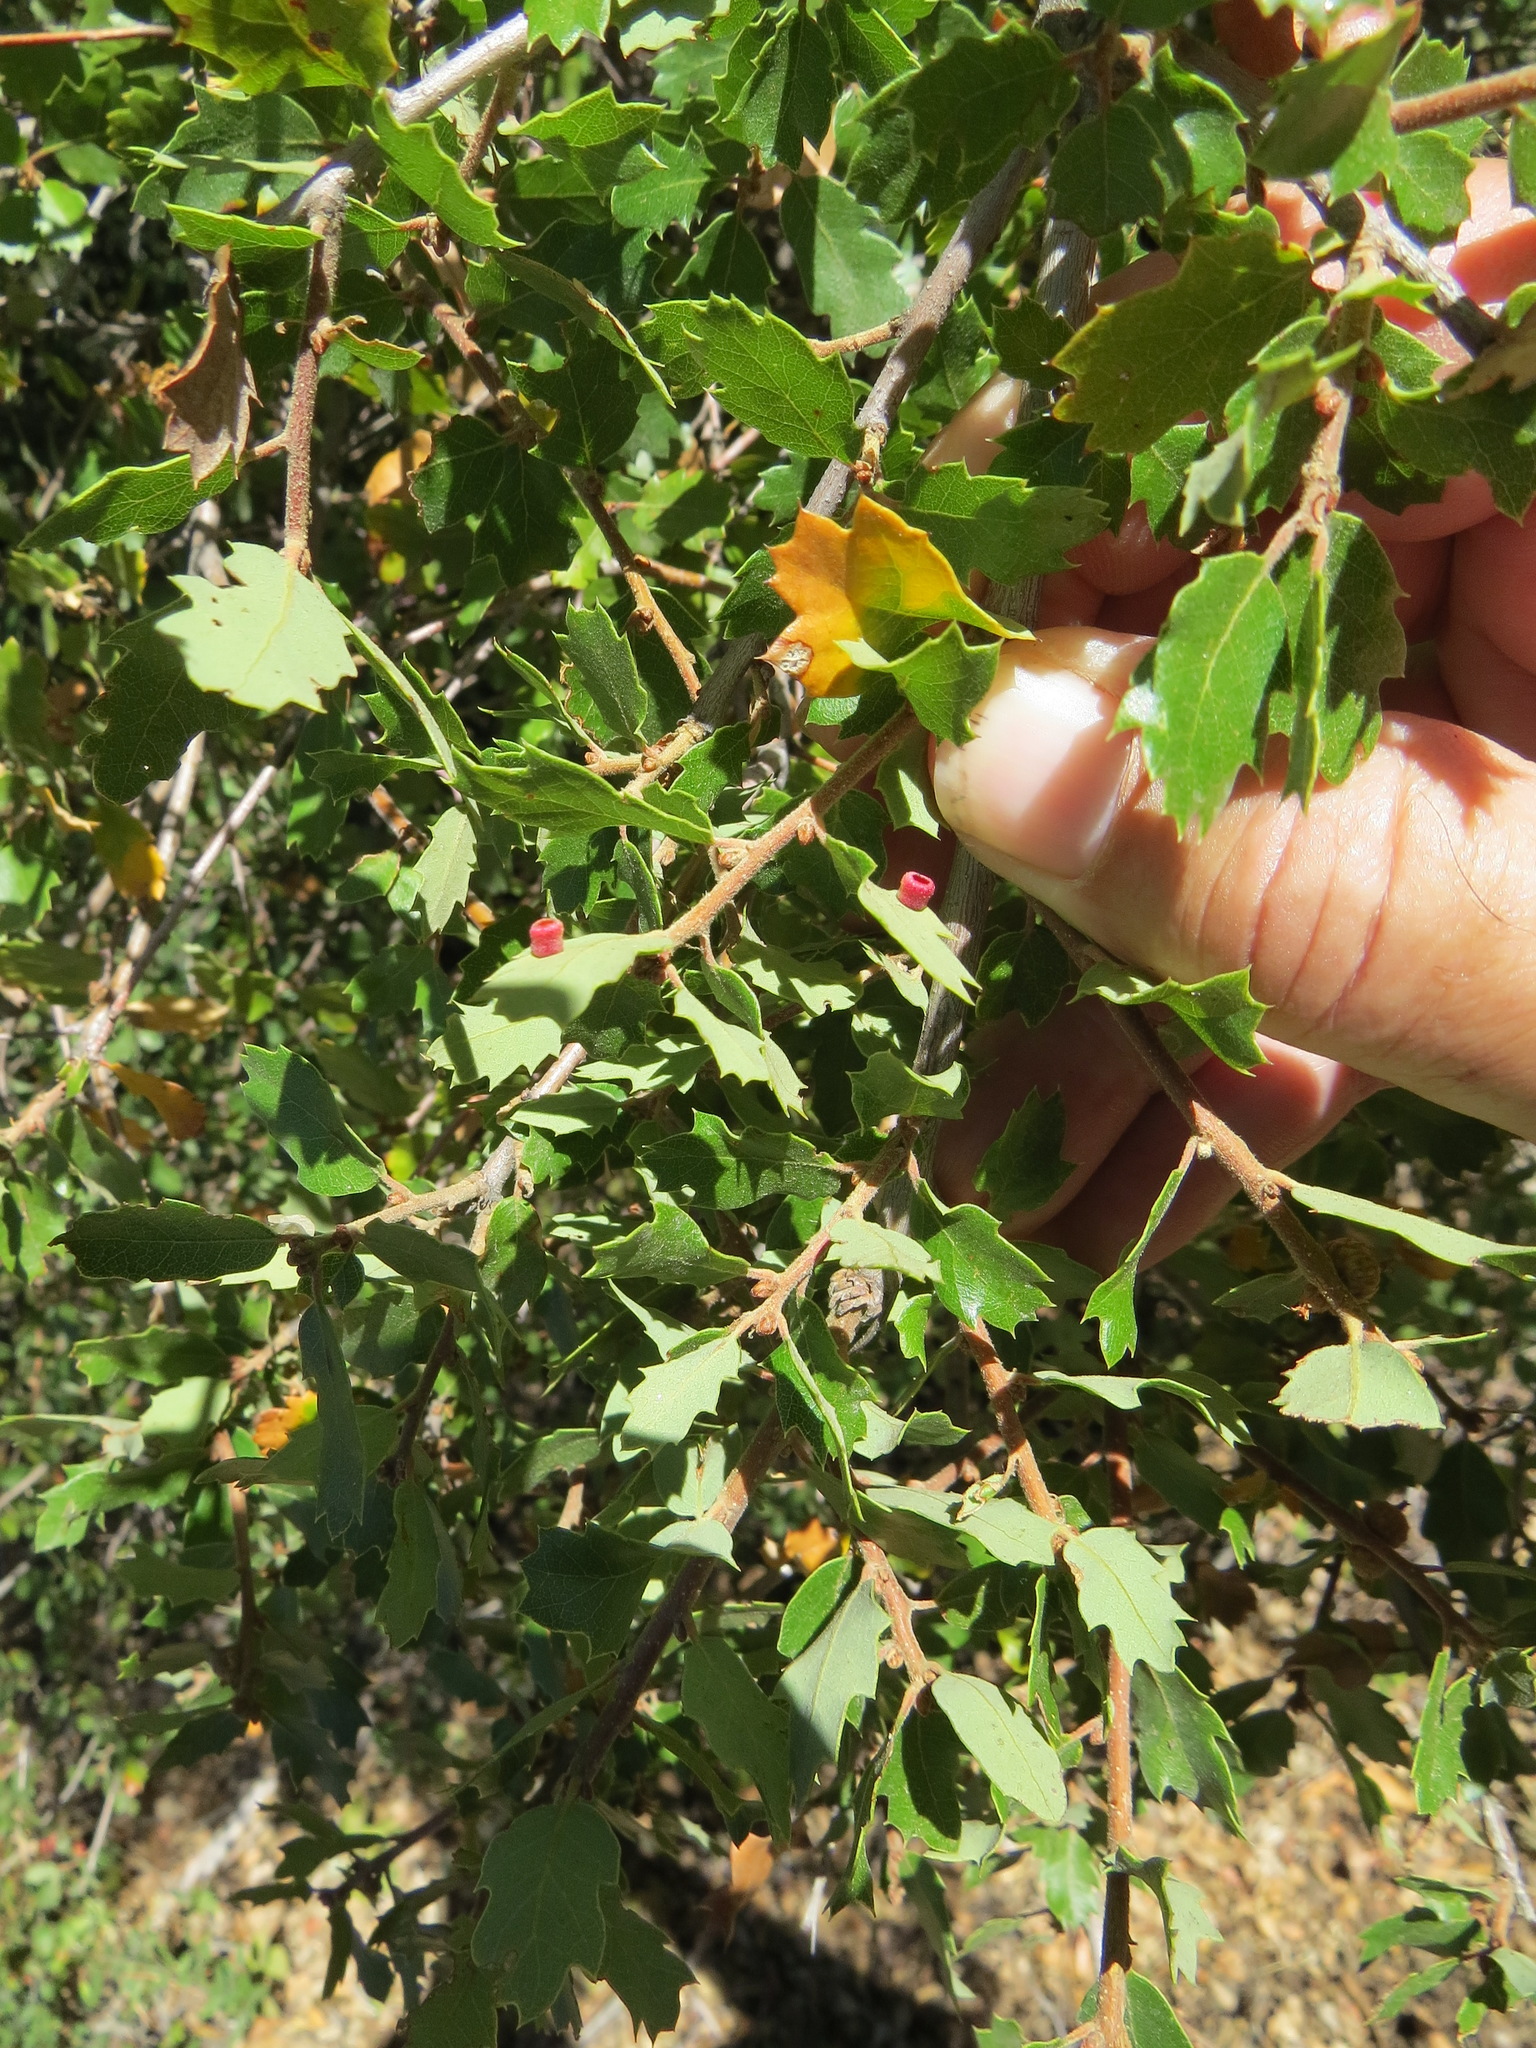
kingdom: Animalia
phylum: Arthropoda
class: Insecta
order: Hymenoptera
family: Cynipidae
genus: Phylloteras
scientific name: Phylloteras
